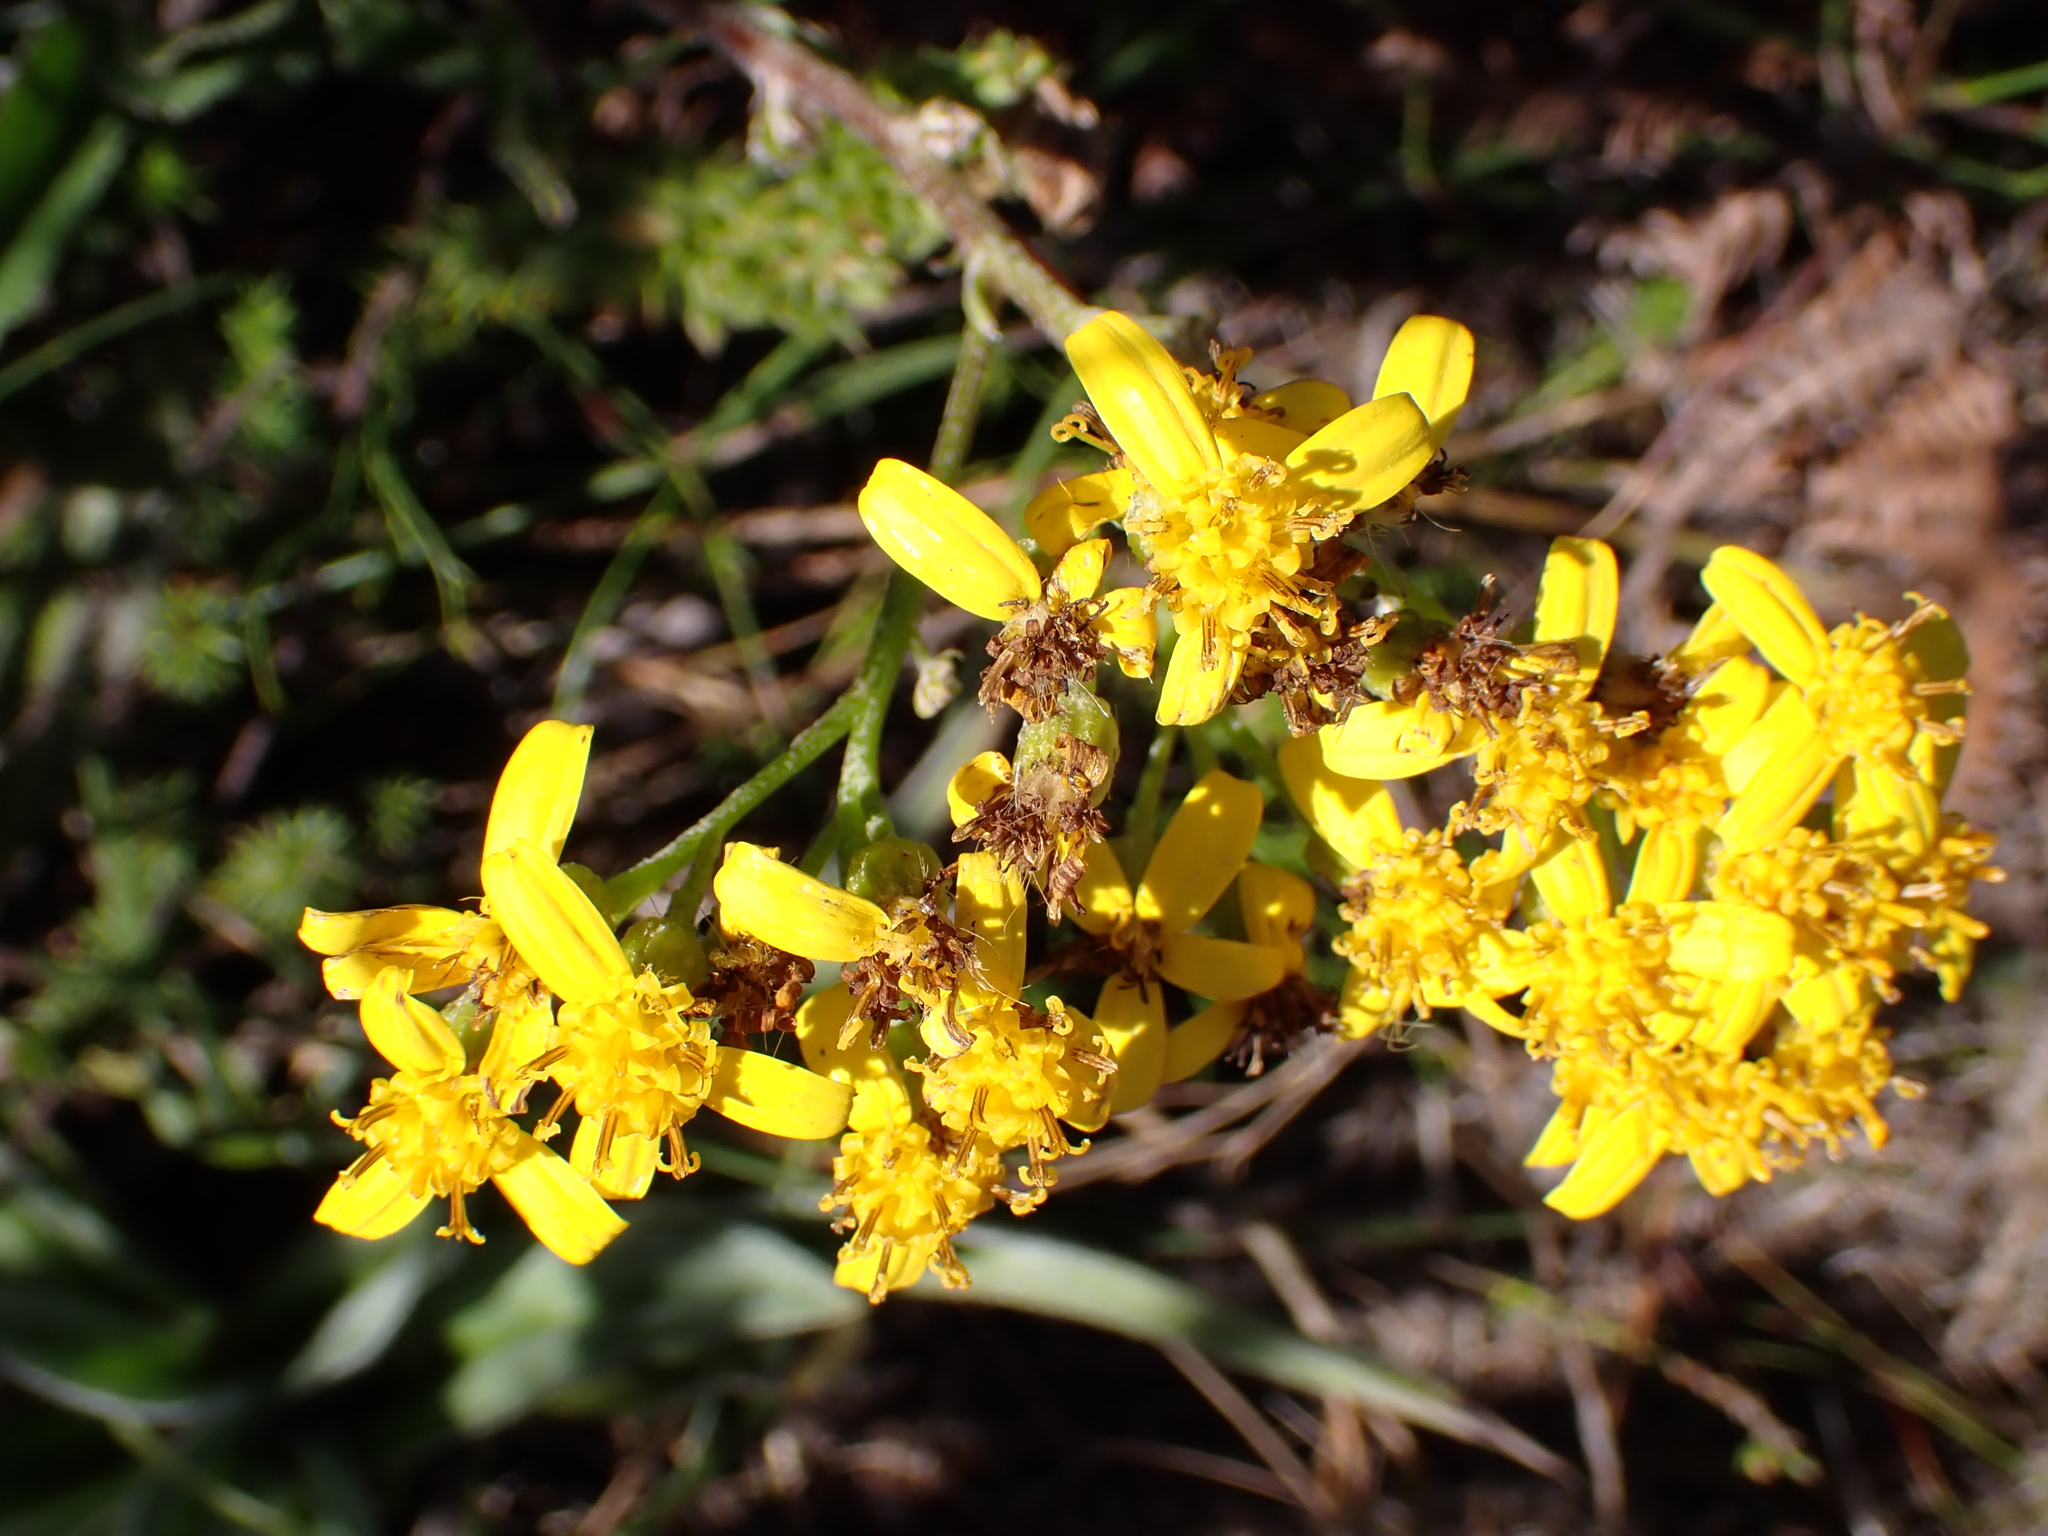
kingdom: Plantae
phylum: Tracheophyta
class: Magnoliopsida
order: Asterales
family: Asteraceae
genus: Senecio
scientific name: Senecio crenatus
